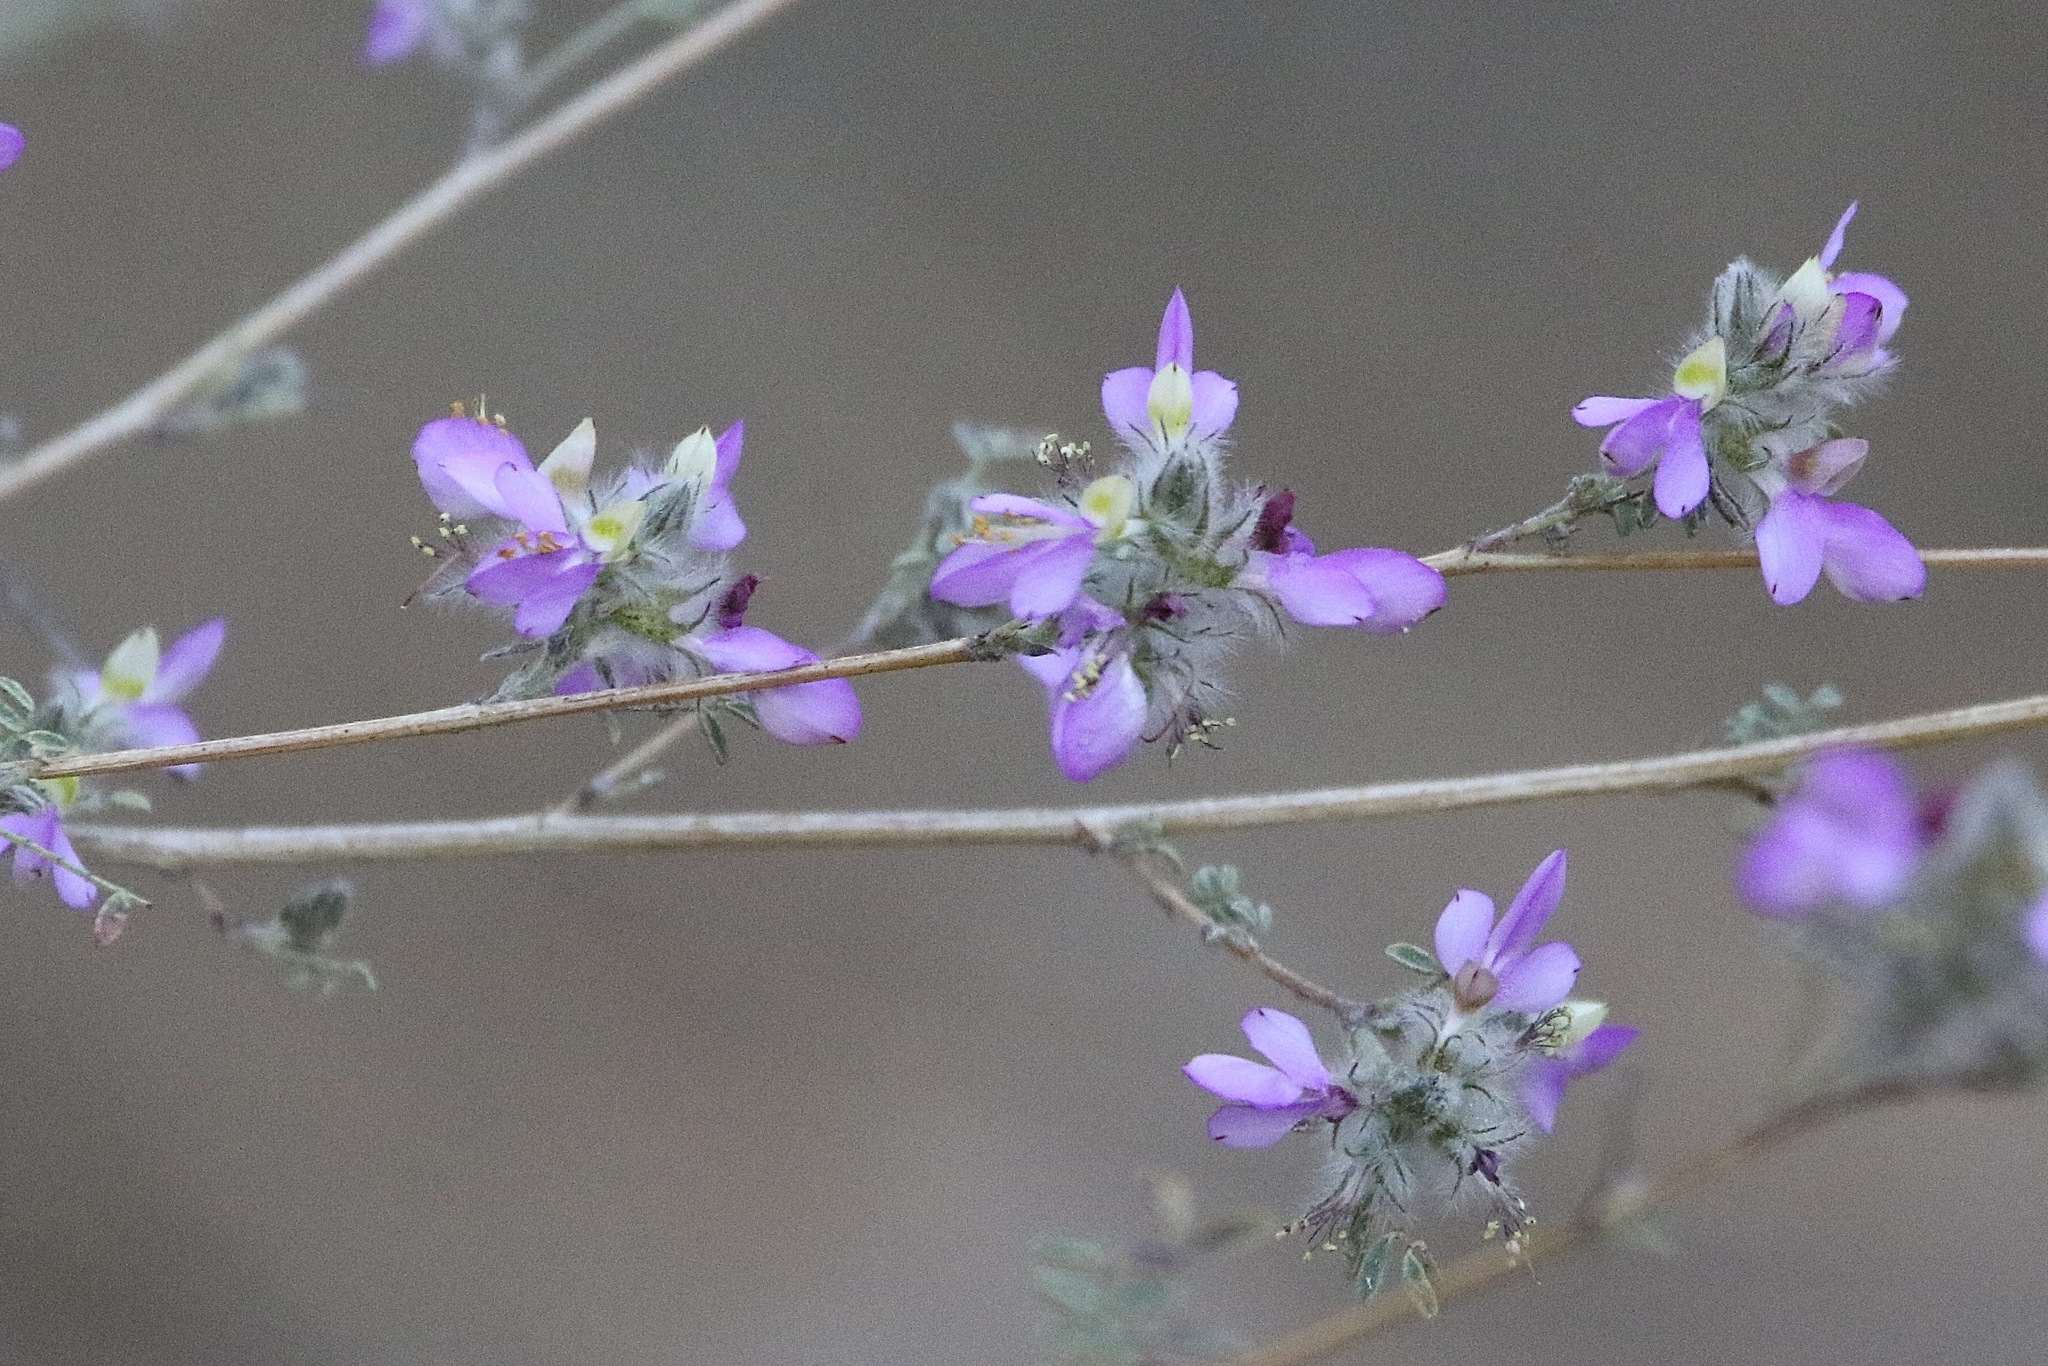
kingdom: Plantae
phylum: Tracheophyta
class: Magnoliopsida
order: Fabales
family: Fabaceae
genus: Dalea
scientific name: Dalea versicolor
